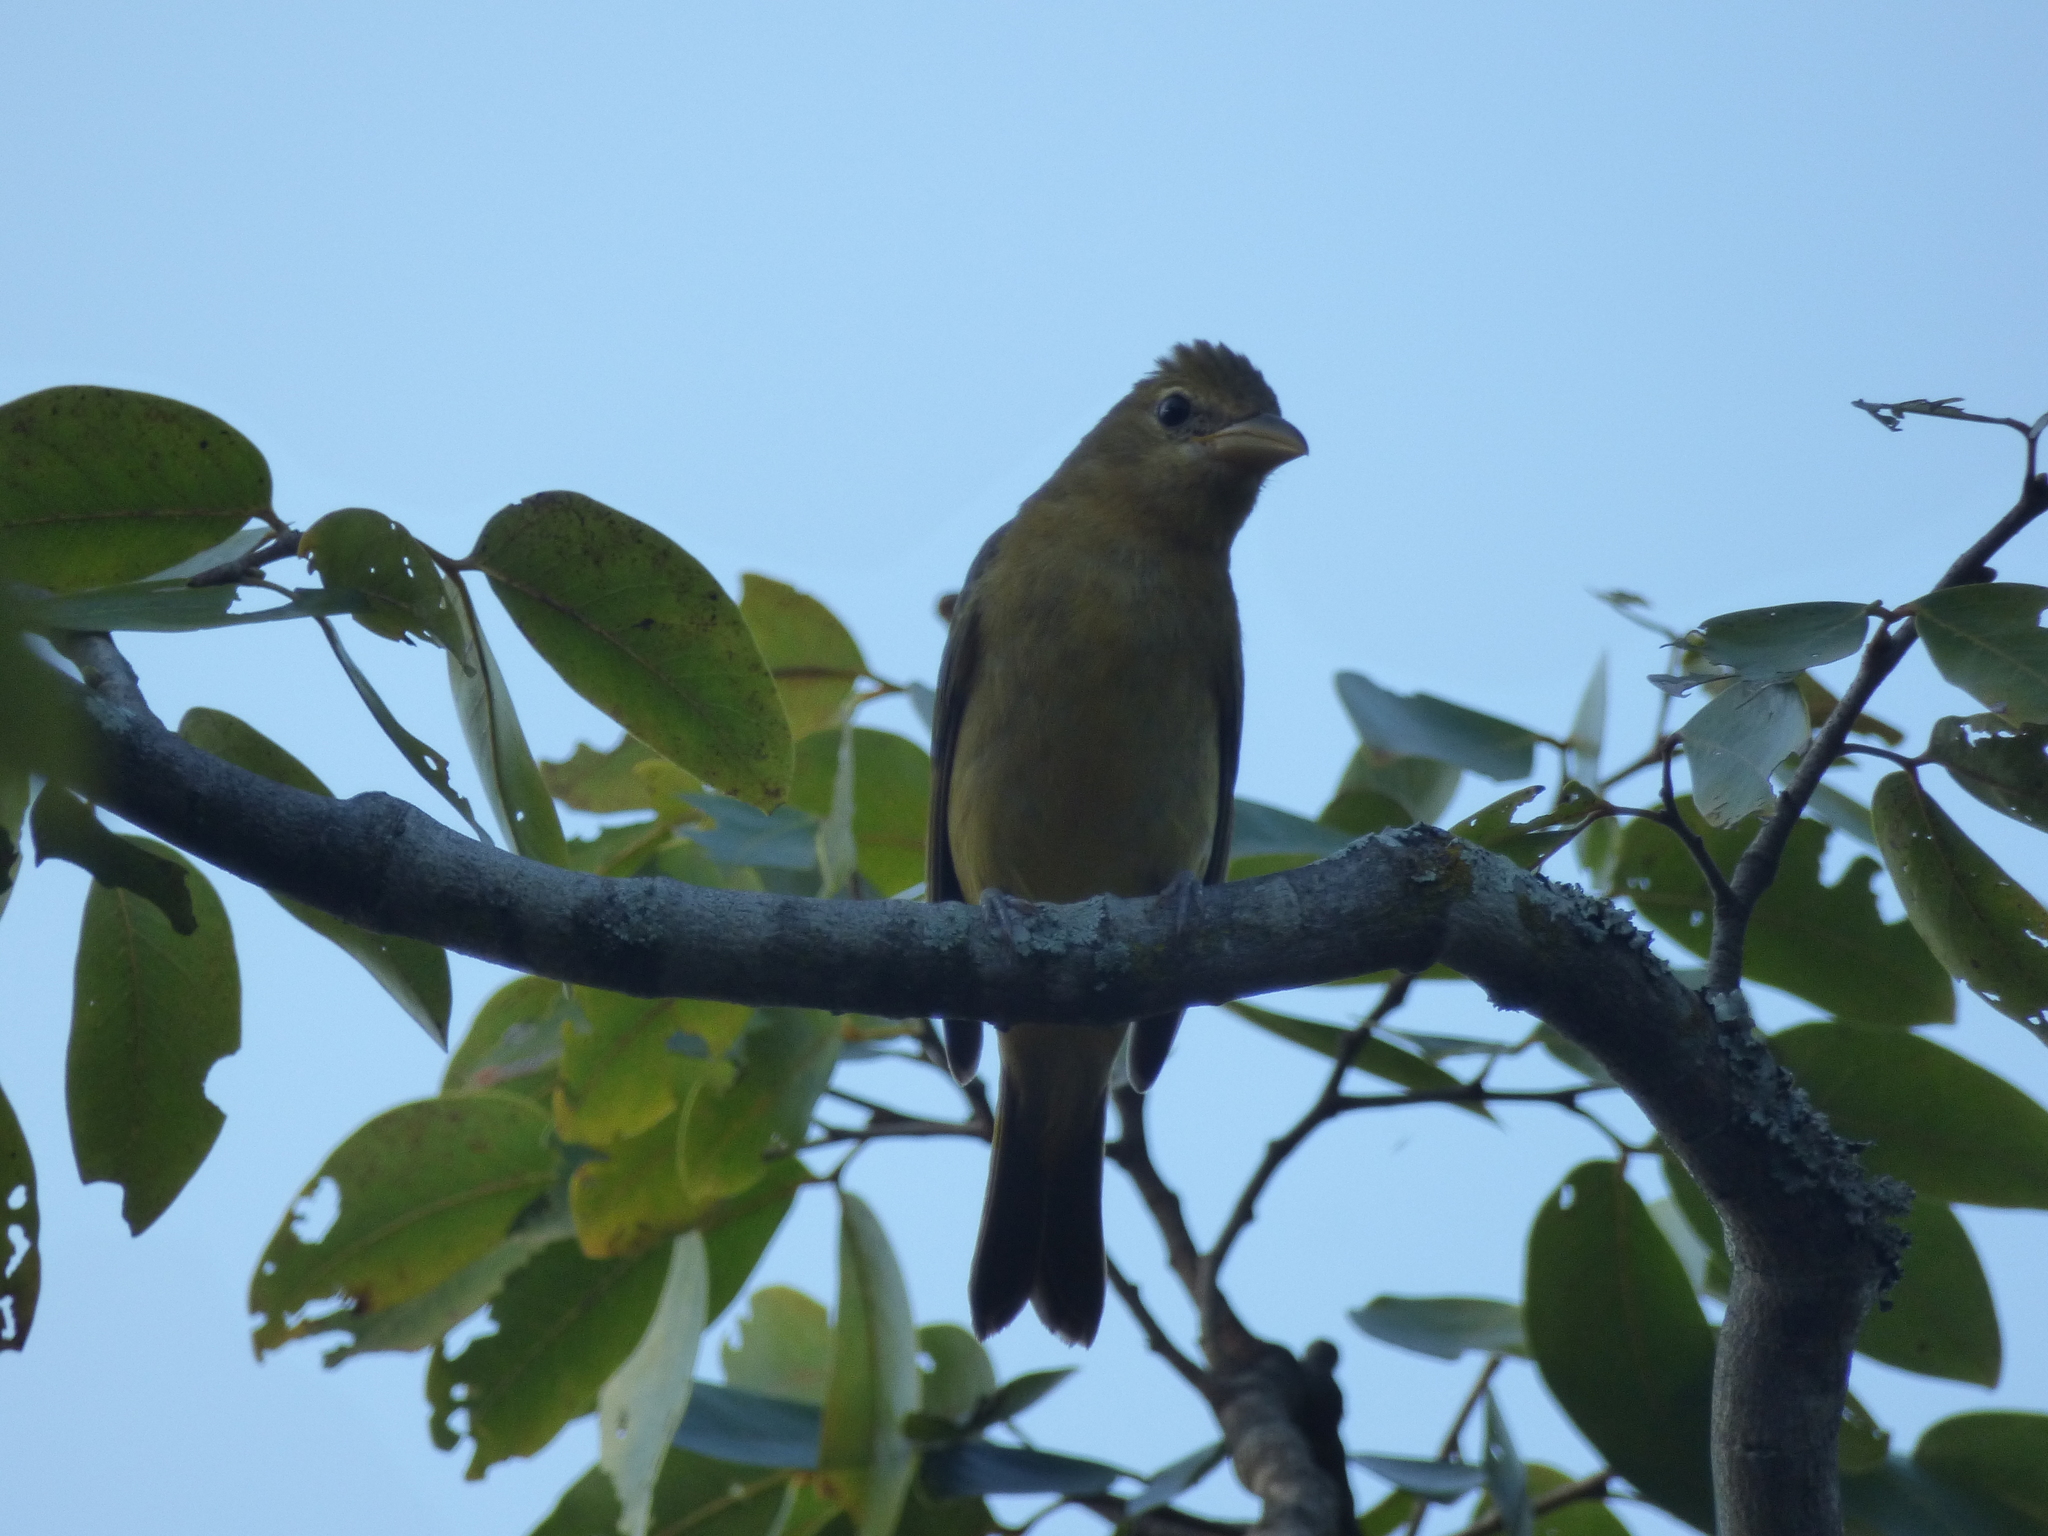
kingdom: Animalia
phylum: Chordata
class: Aves
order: Passeriformes
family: Cardinalidae
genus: Piranga
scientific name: Piranga rubra
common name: Summer tanager
